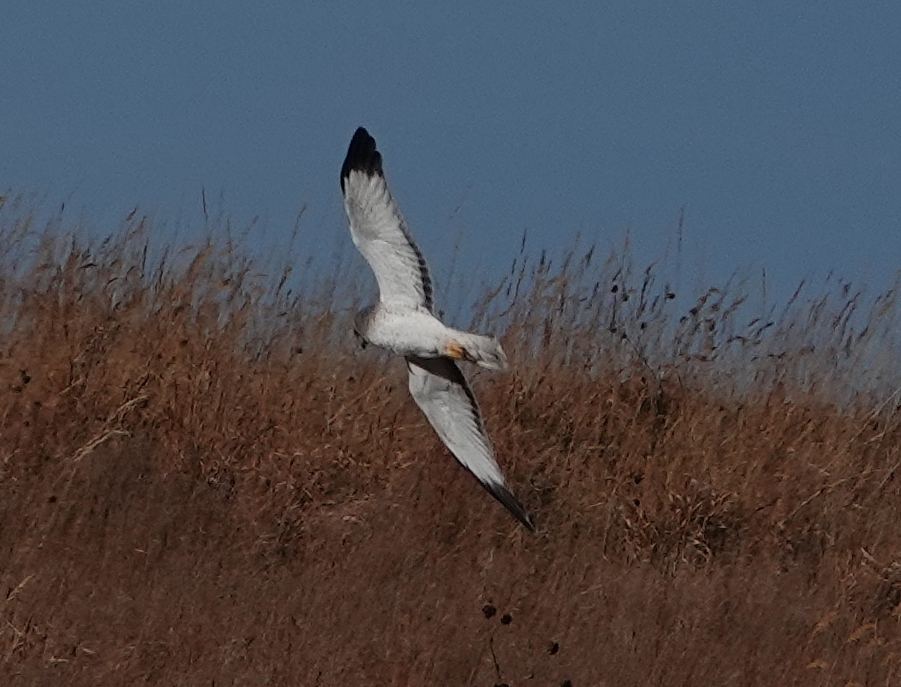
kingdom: Animalia
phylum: Chordata
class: Aves
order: Accipitriformes
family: Accipitridae
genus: Circus
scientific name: Circus cyaneus
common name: Hen harrier
